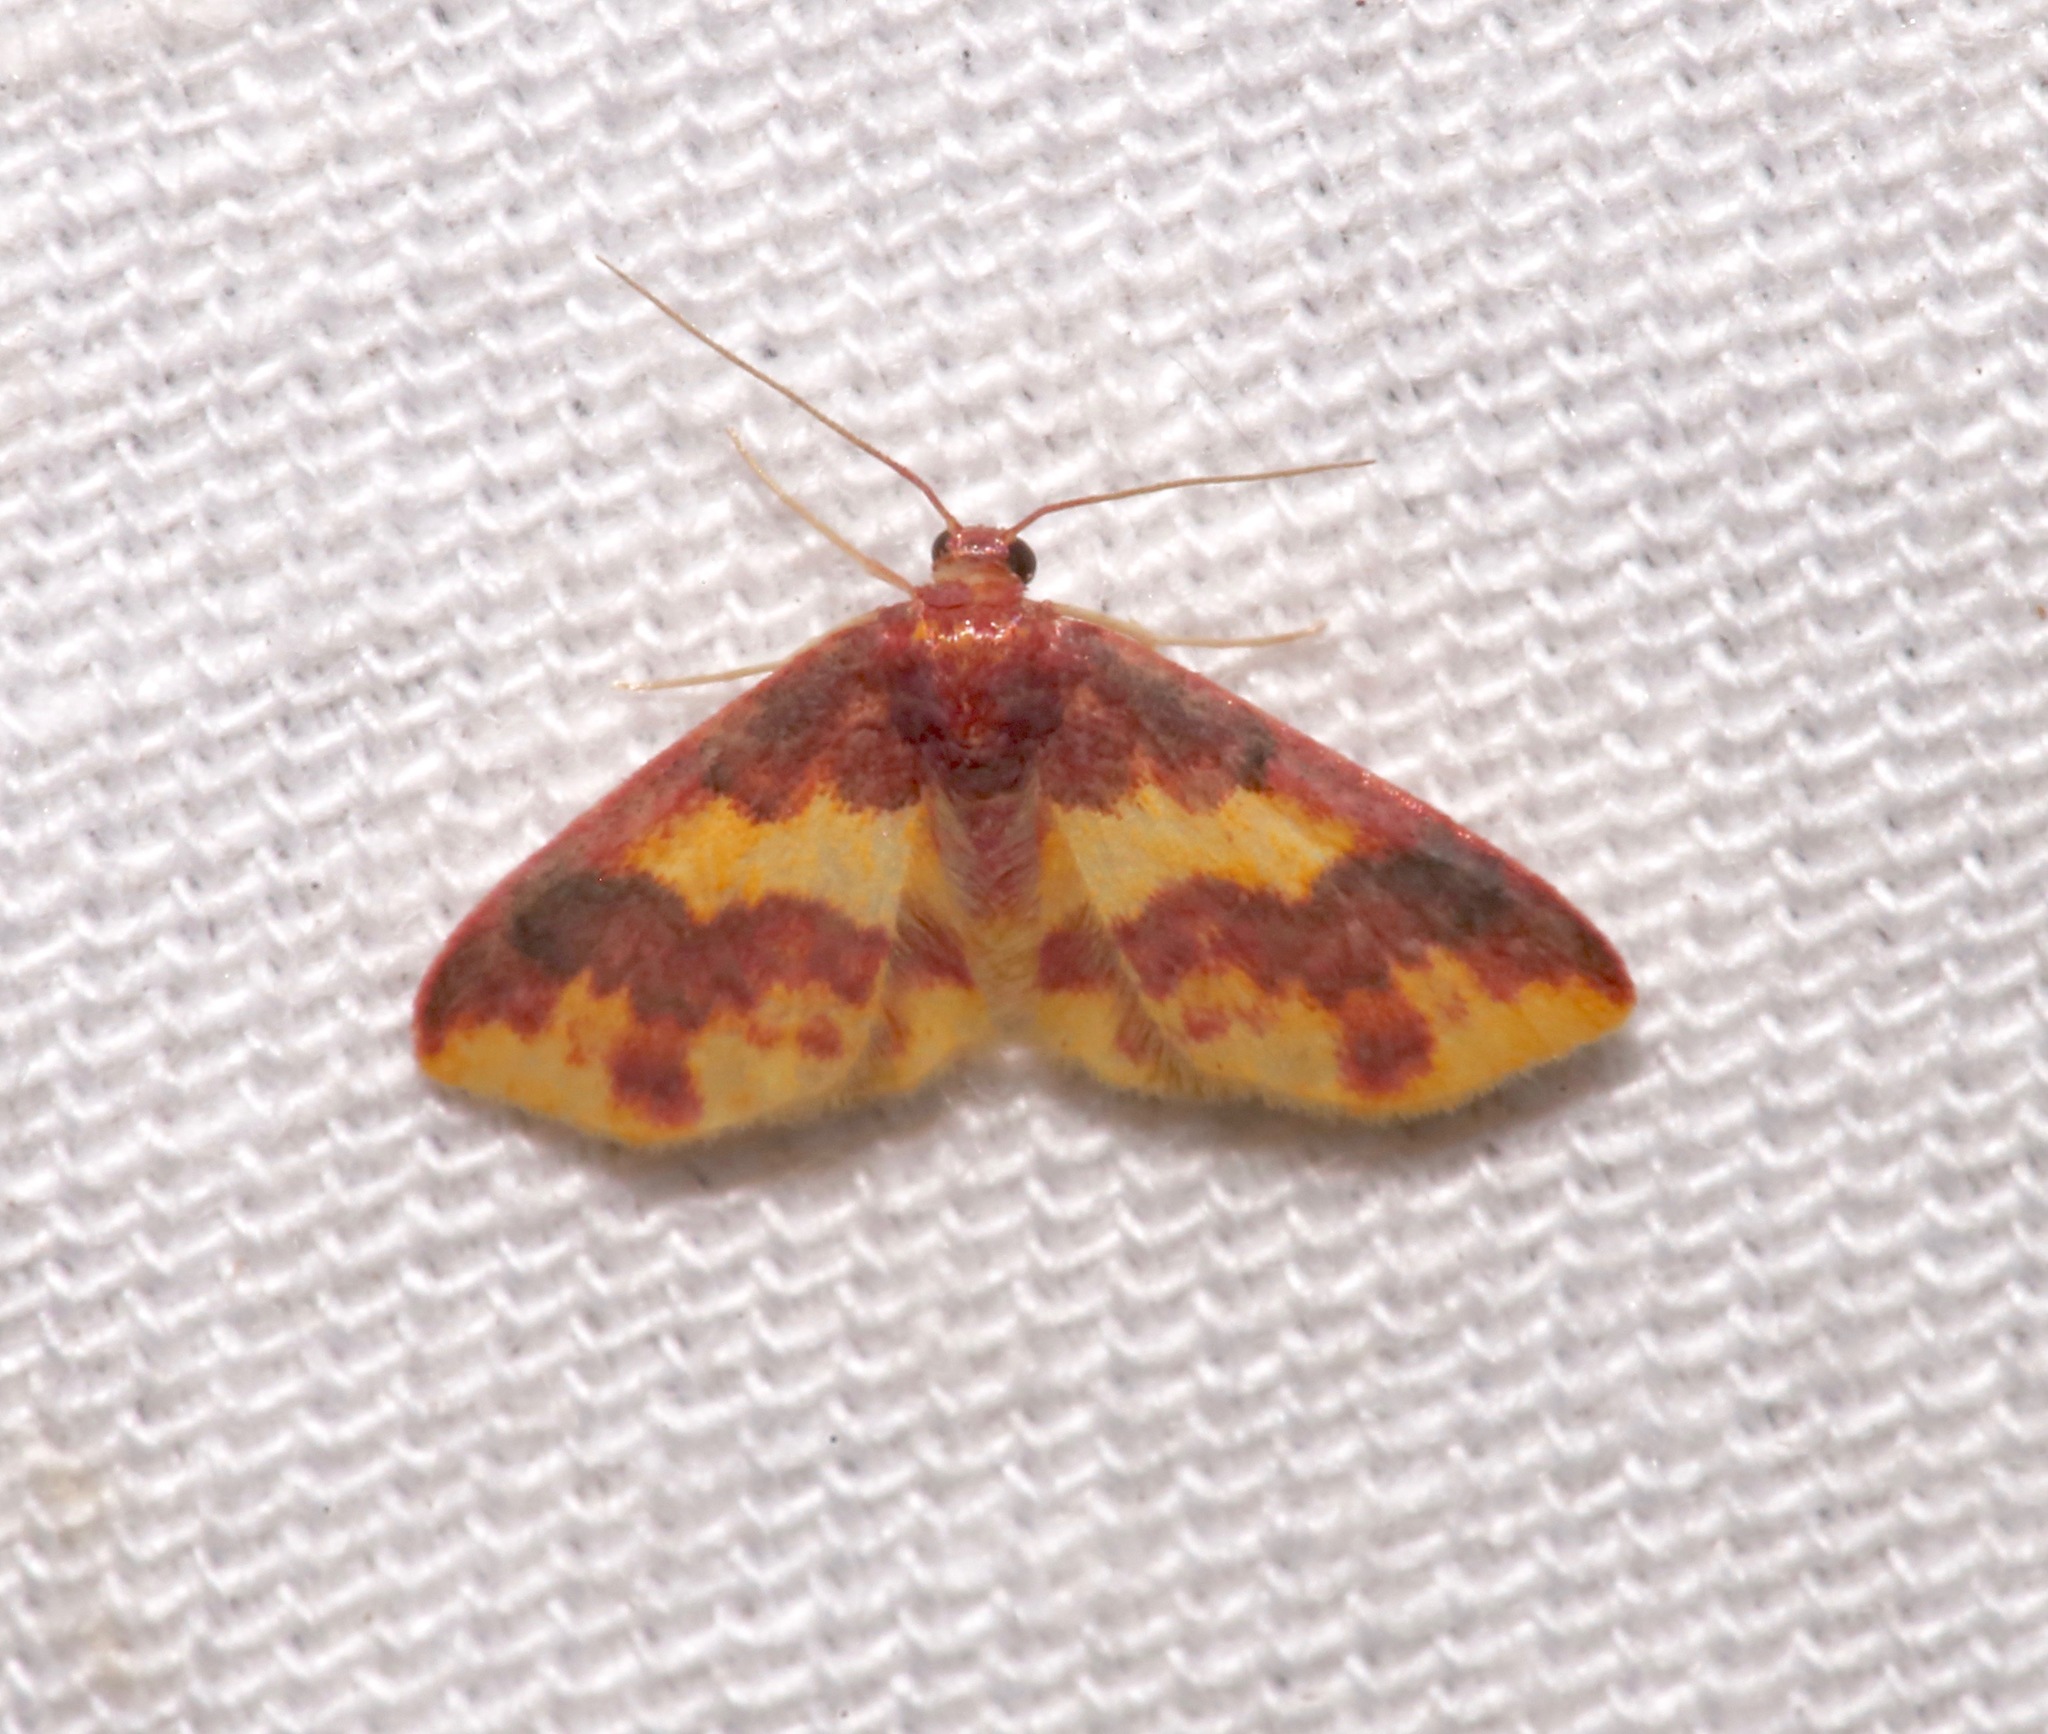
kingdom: Animalia
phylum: Arthropoda
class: Insecta
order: Lepidoptera
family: Geometridae
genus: Lophosis
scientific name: Lophosis labeculata
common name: Stained lophosis moth
